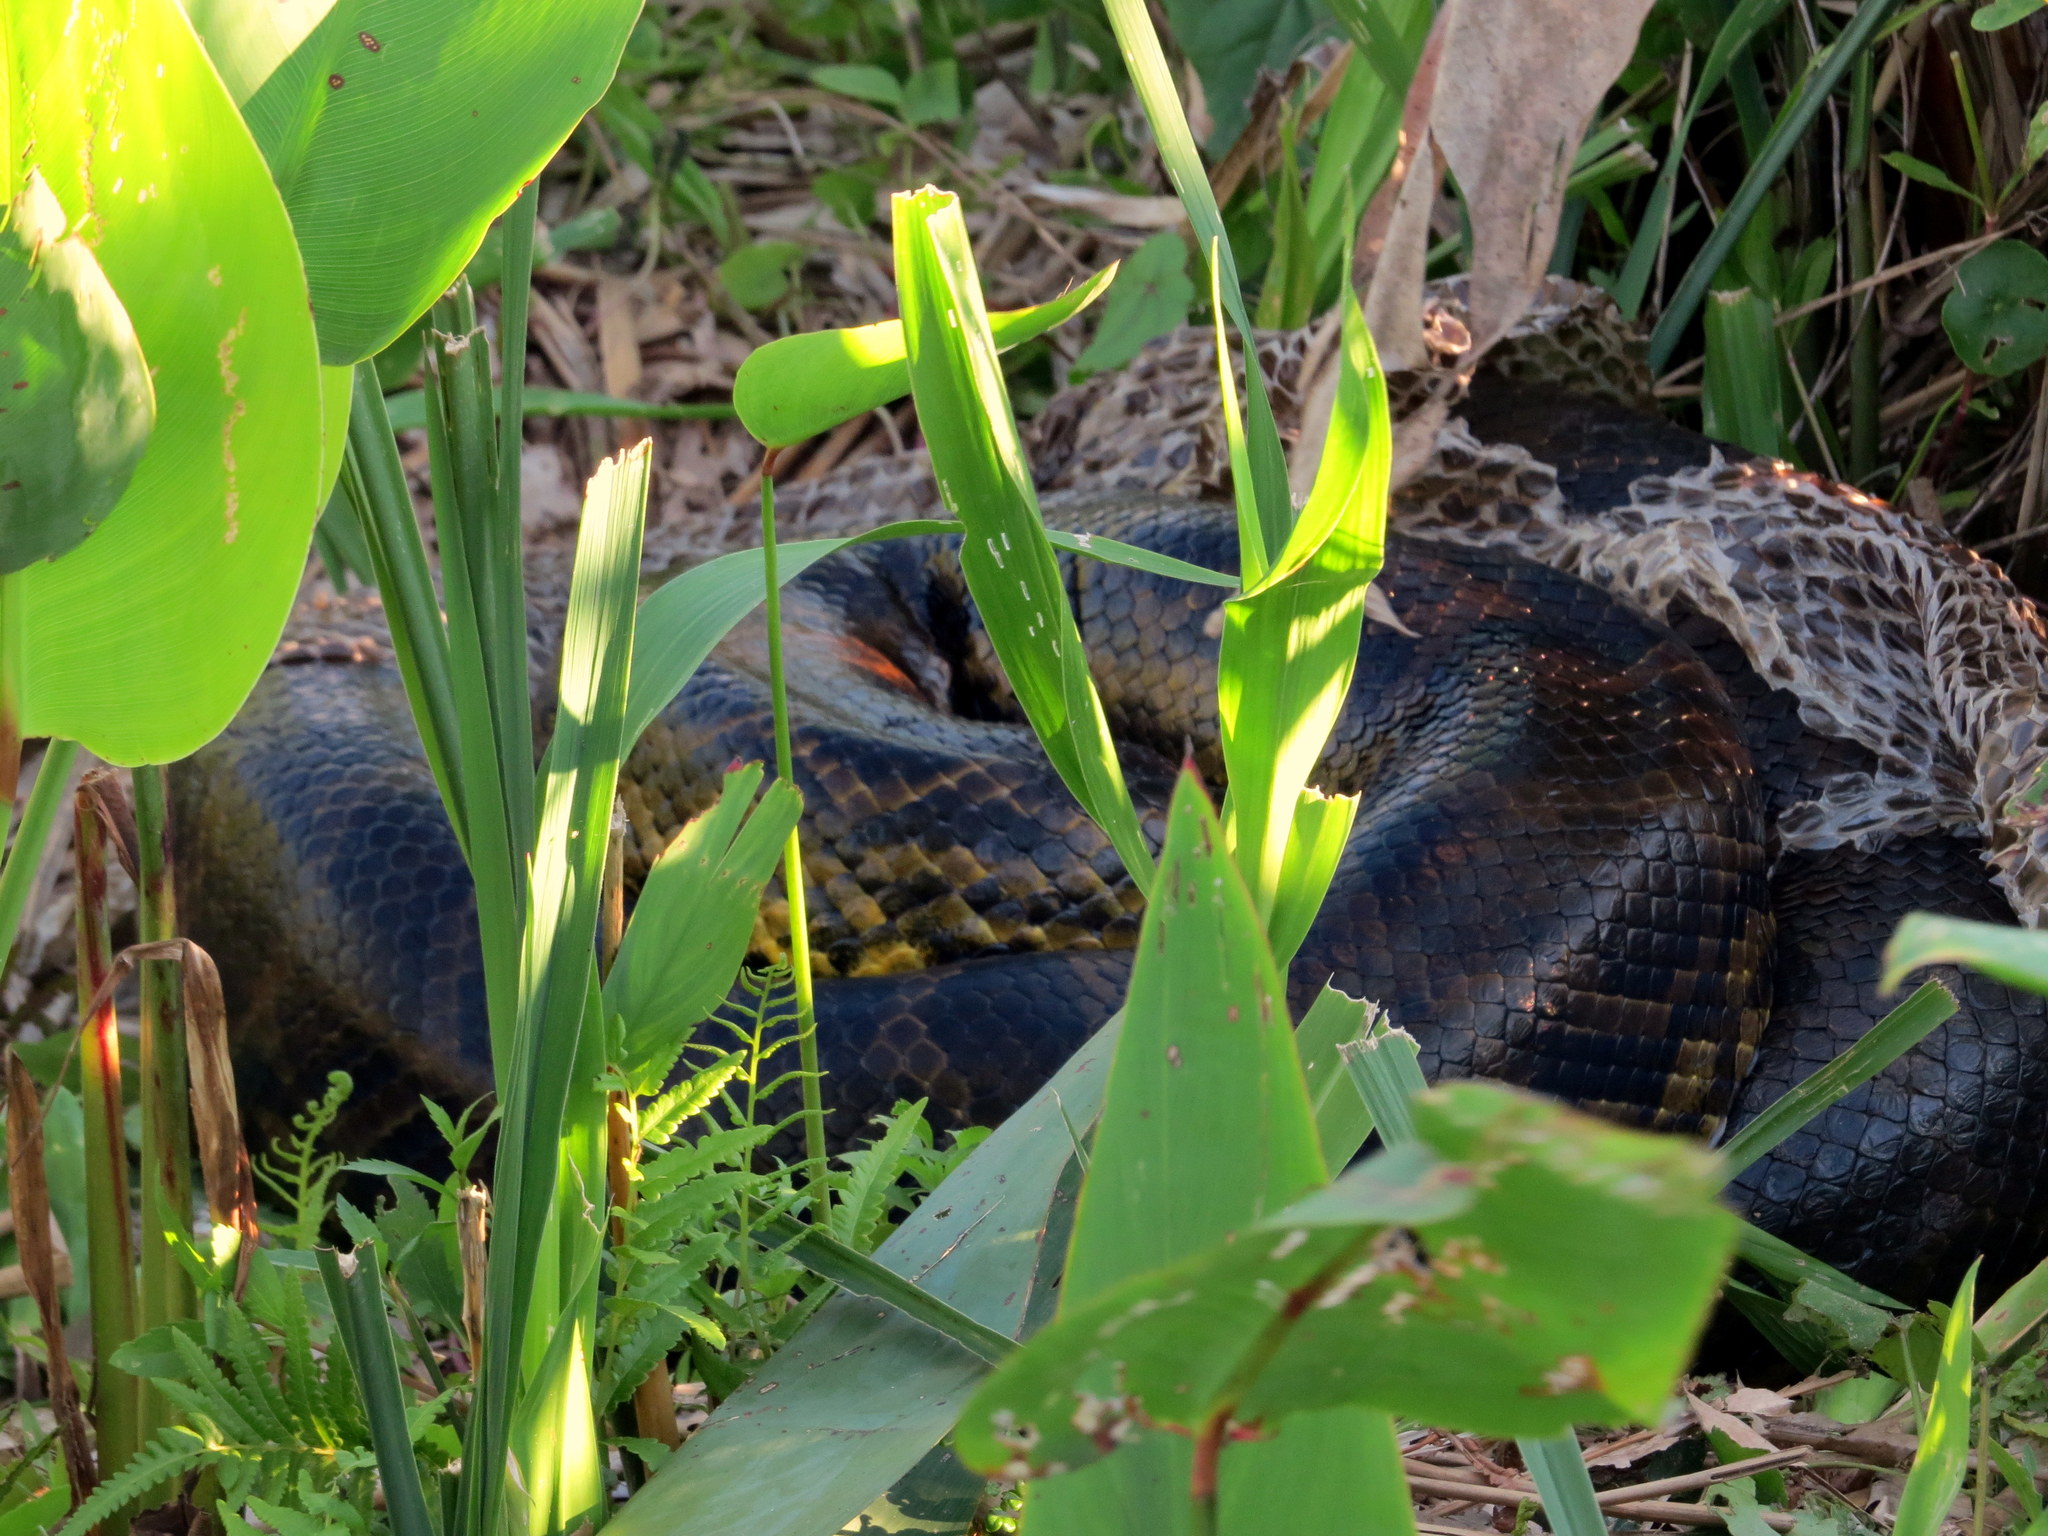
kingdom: Animalia
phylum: Chordata
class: Squamata
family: Boidae
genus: Eunectes
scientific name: Eunectes notaeus
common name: Yellow anaconda
